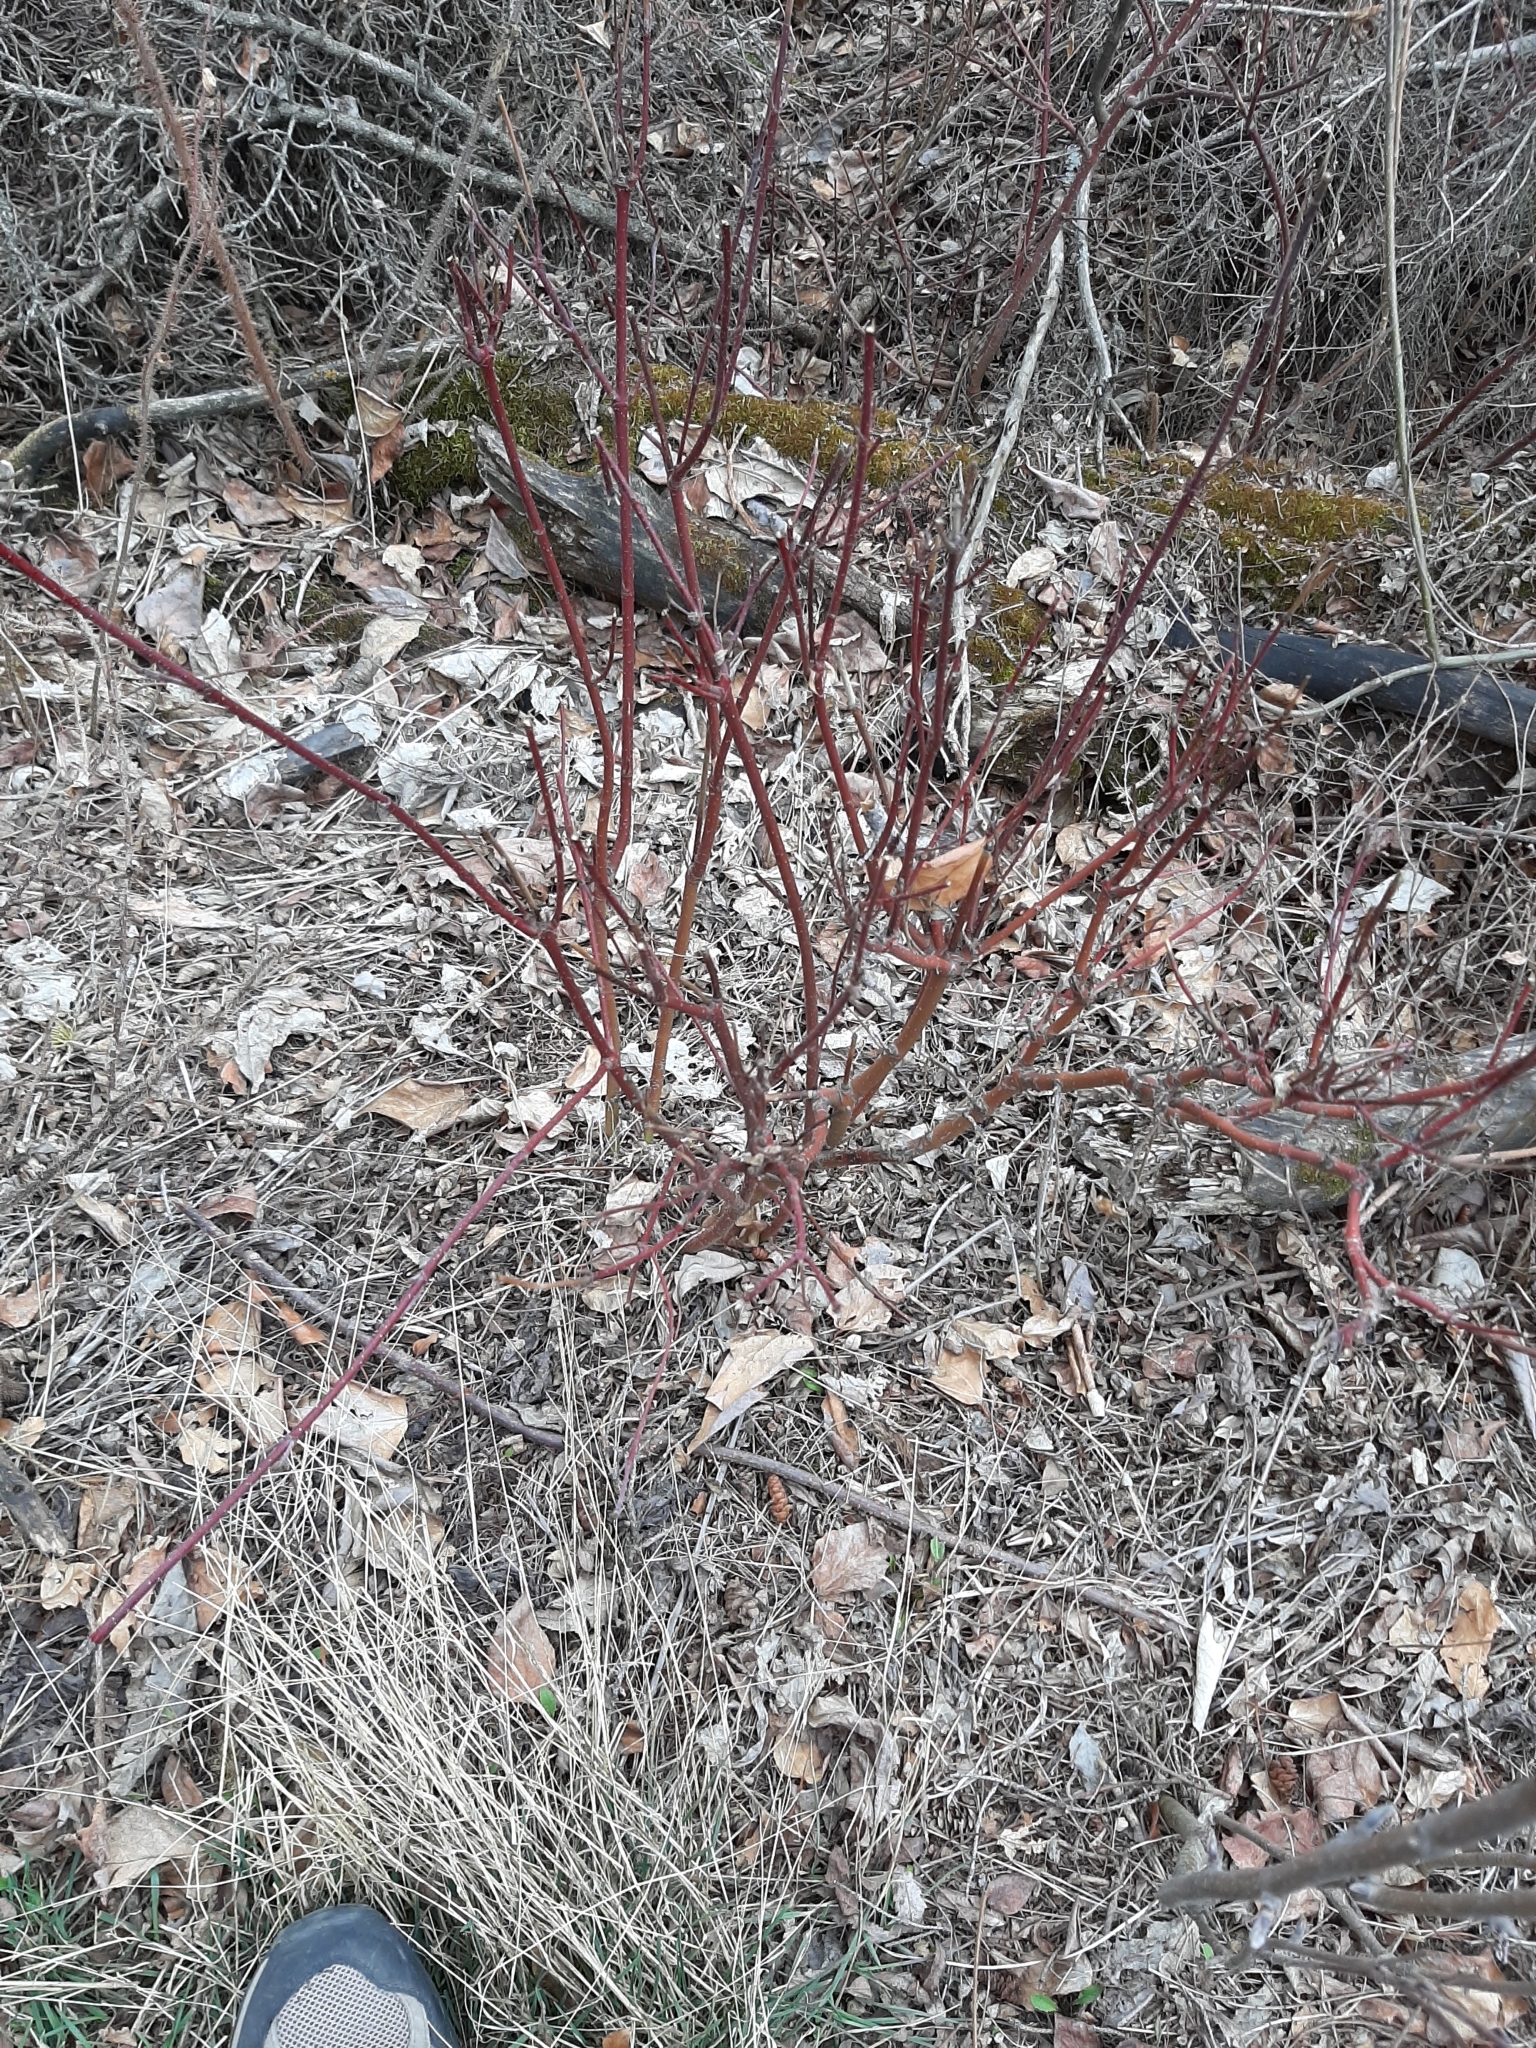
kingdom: Plantae
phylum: Tracheophyta
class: Magnoliopsida
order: Cornales
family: Cornaceae
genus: Cornus
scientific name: Cornus sericea
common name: Red-osier dogwood
